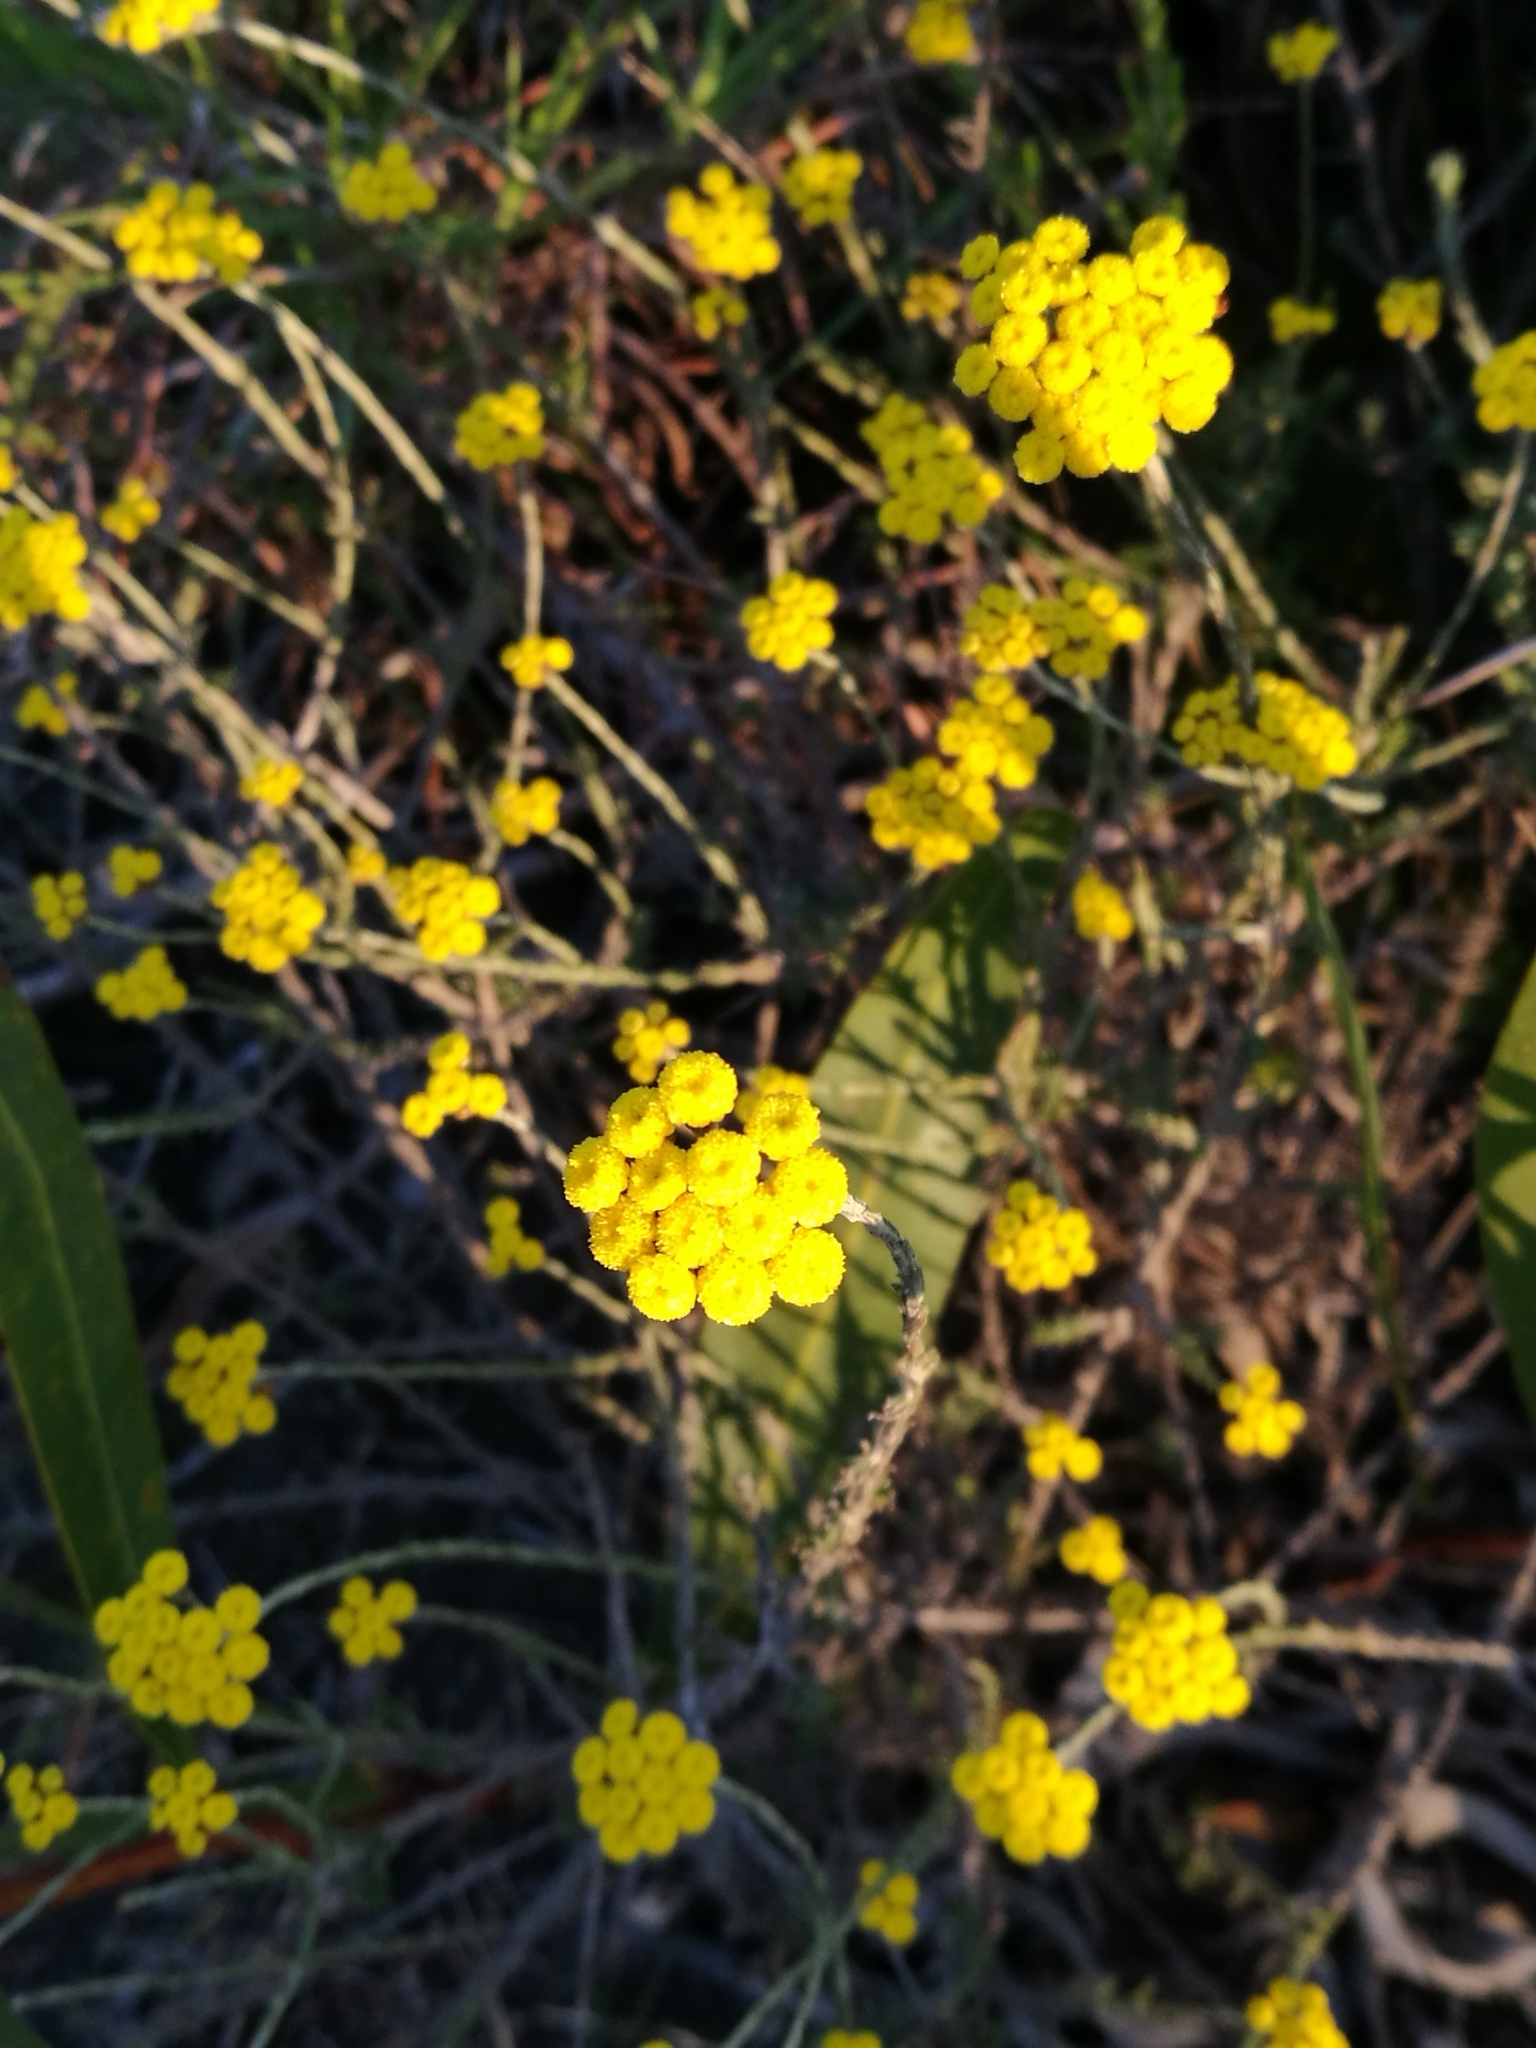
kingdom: Plantae
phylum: Tracheophyta
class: Magnoliopsida
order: Asterales
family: Asteraceae
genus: Helichrysum
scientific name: Helichrysum anomalum
